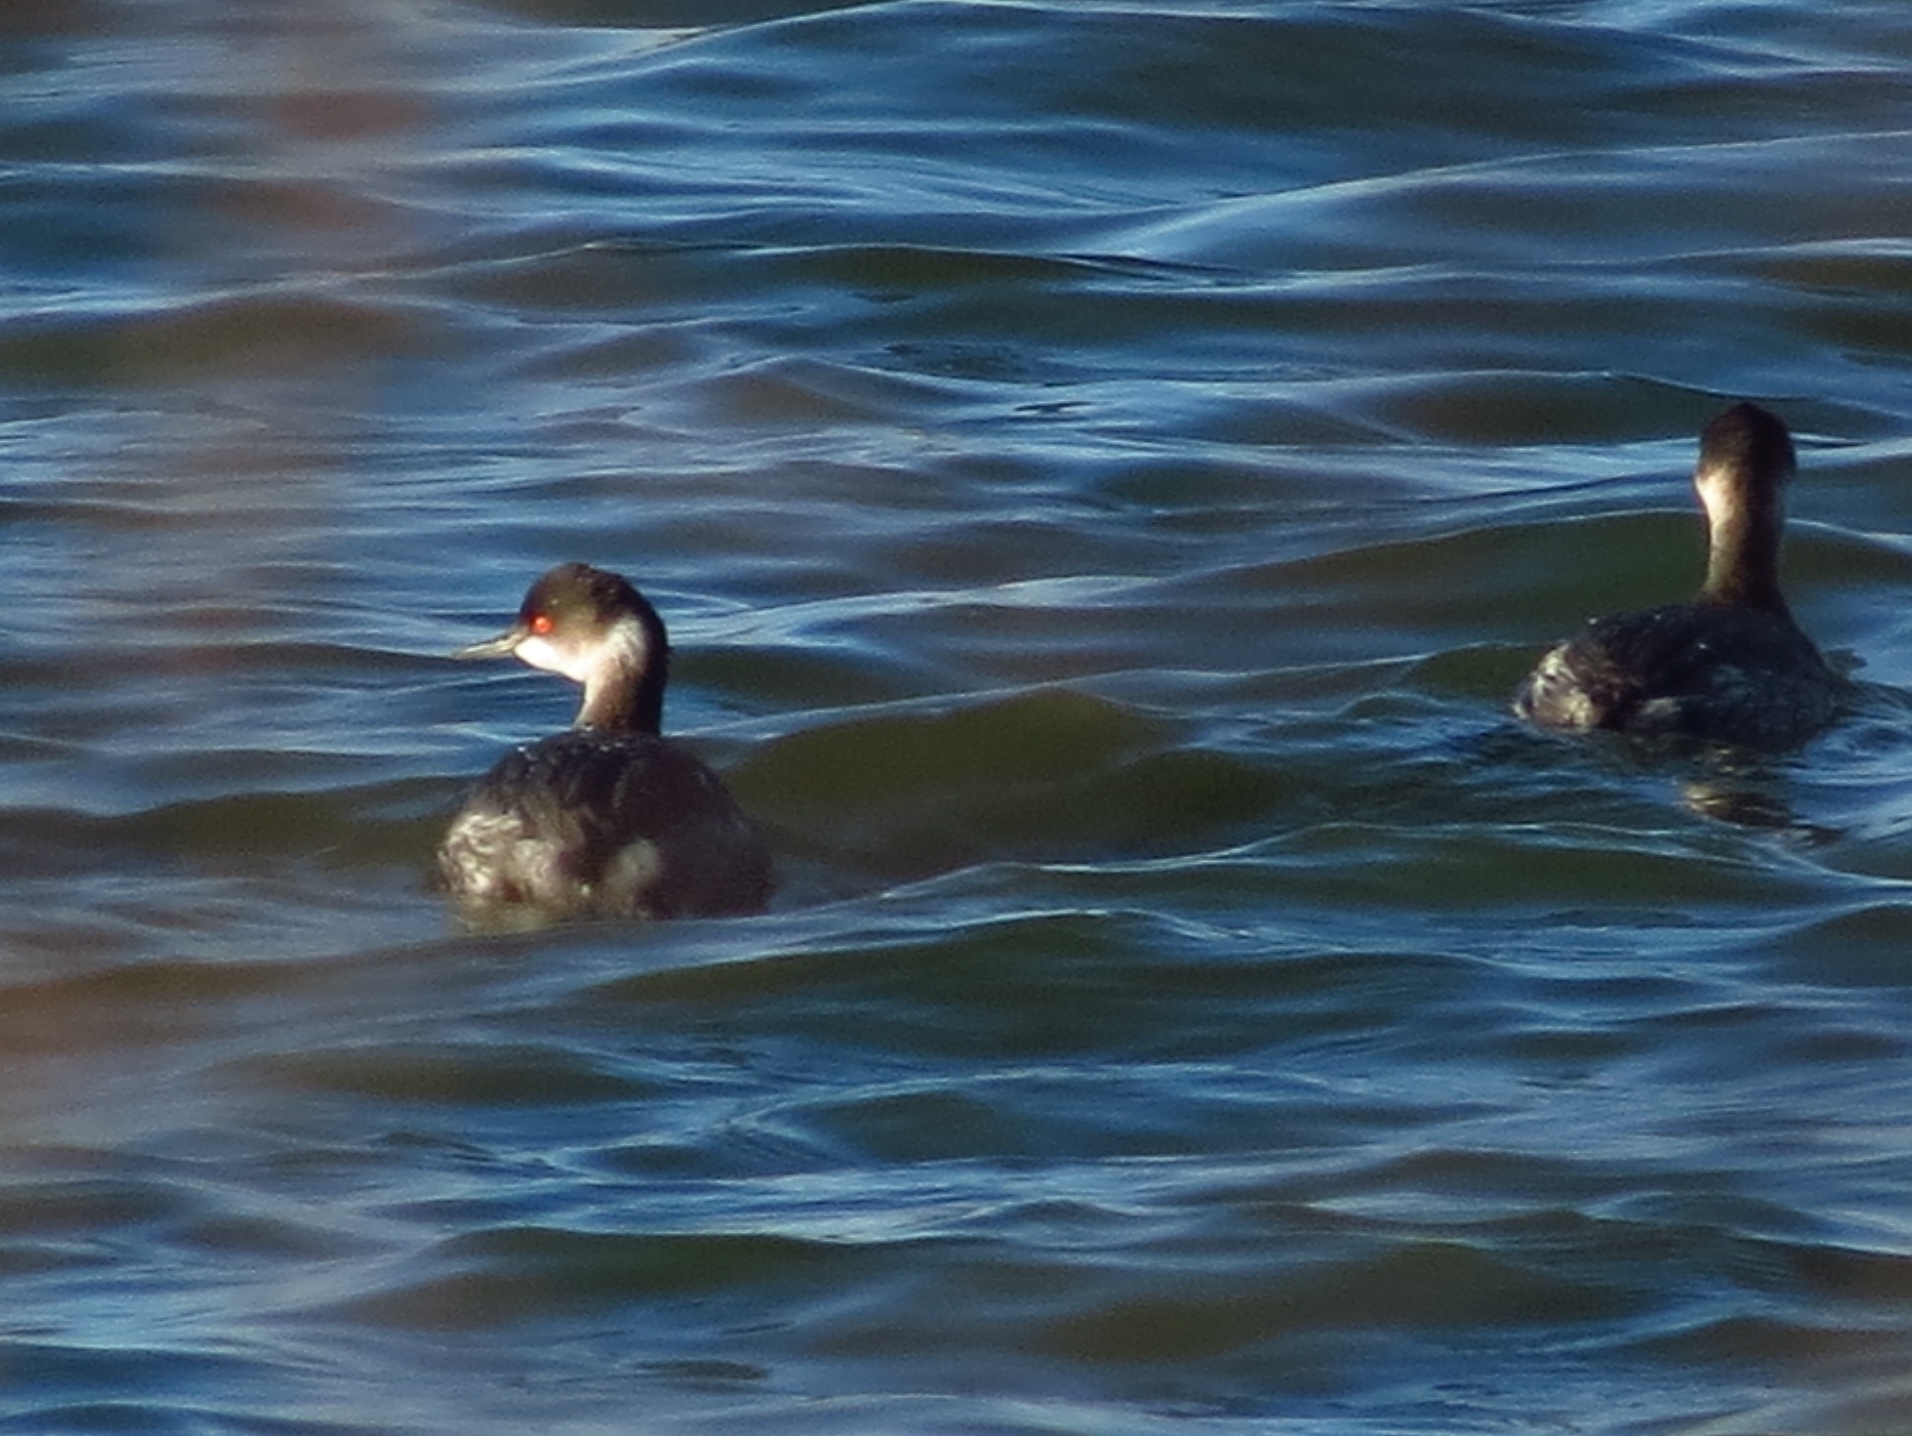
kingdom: Animalia
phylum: Chordata
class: Aves
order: Podicipediformes
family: Podicipedidae
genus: Podiceps
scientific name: Podiceps nigricollis
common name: Black-necked grebe
